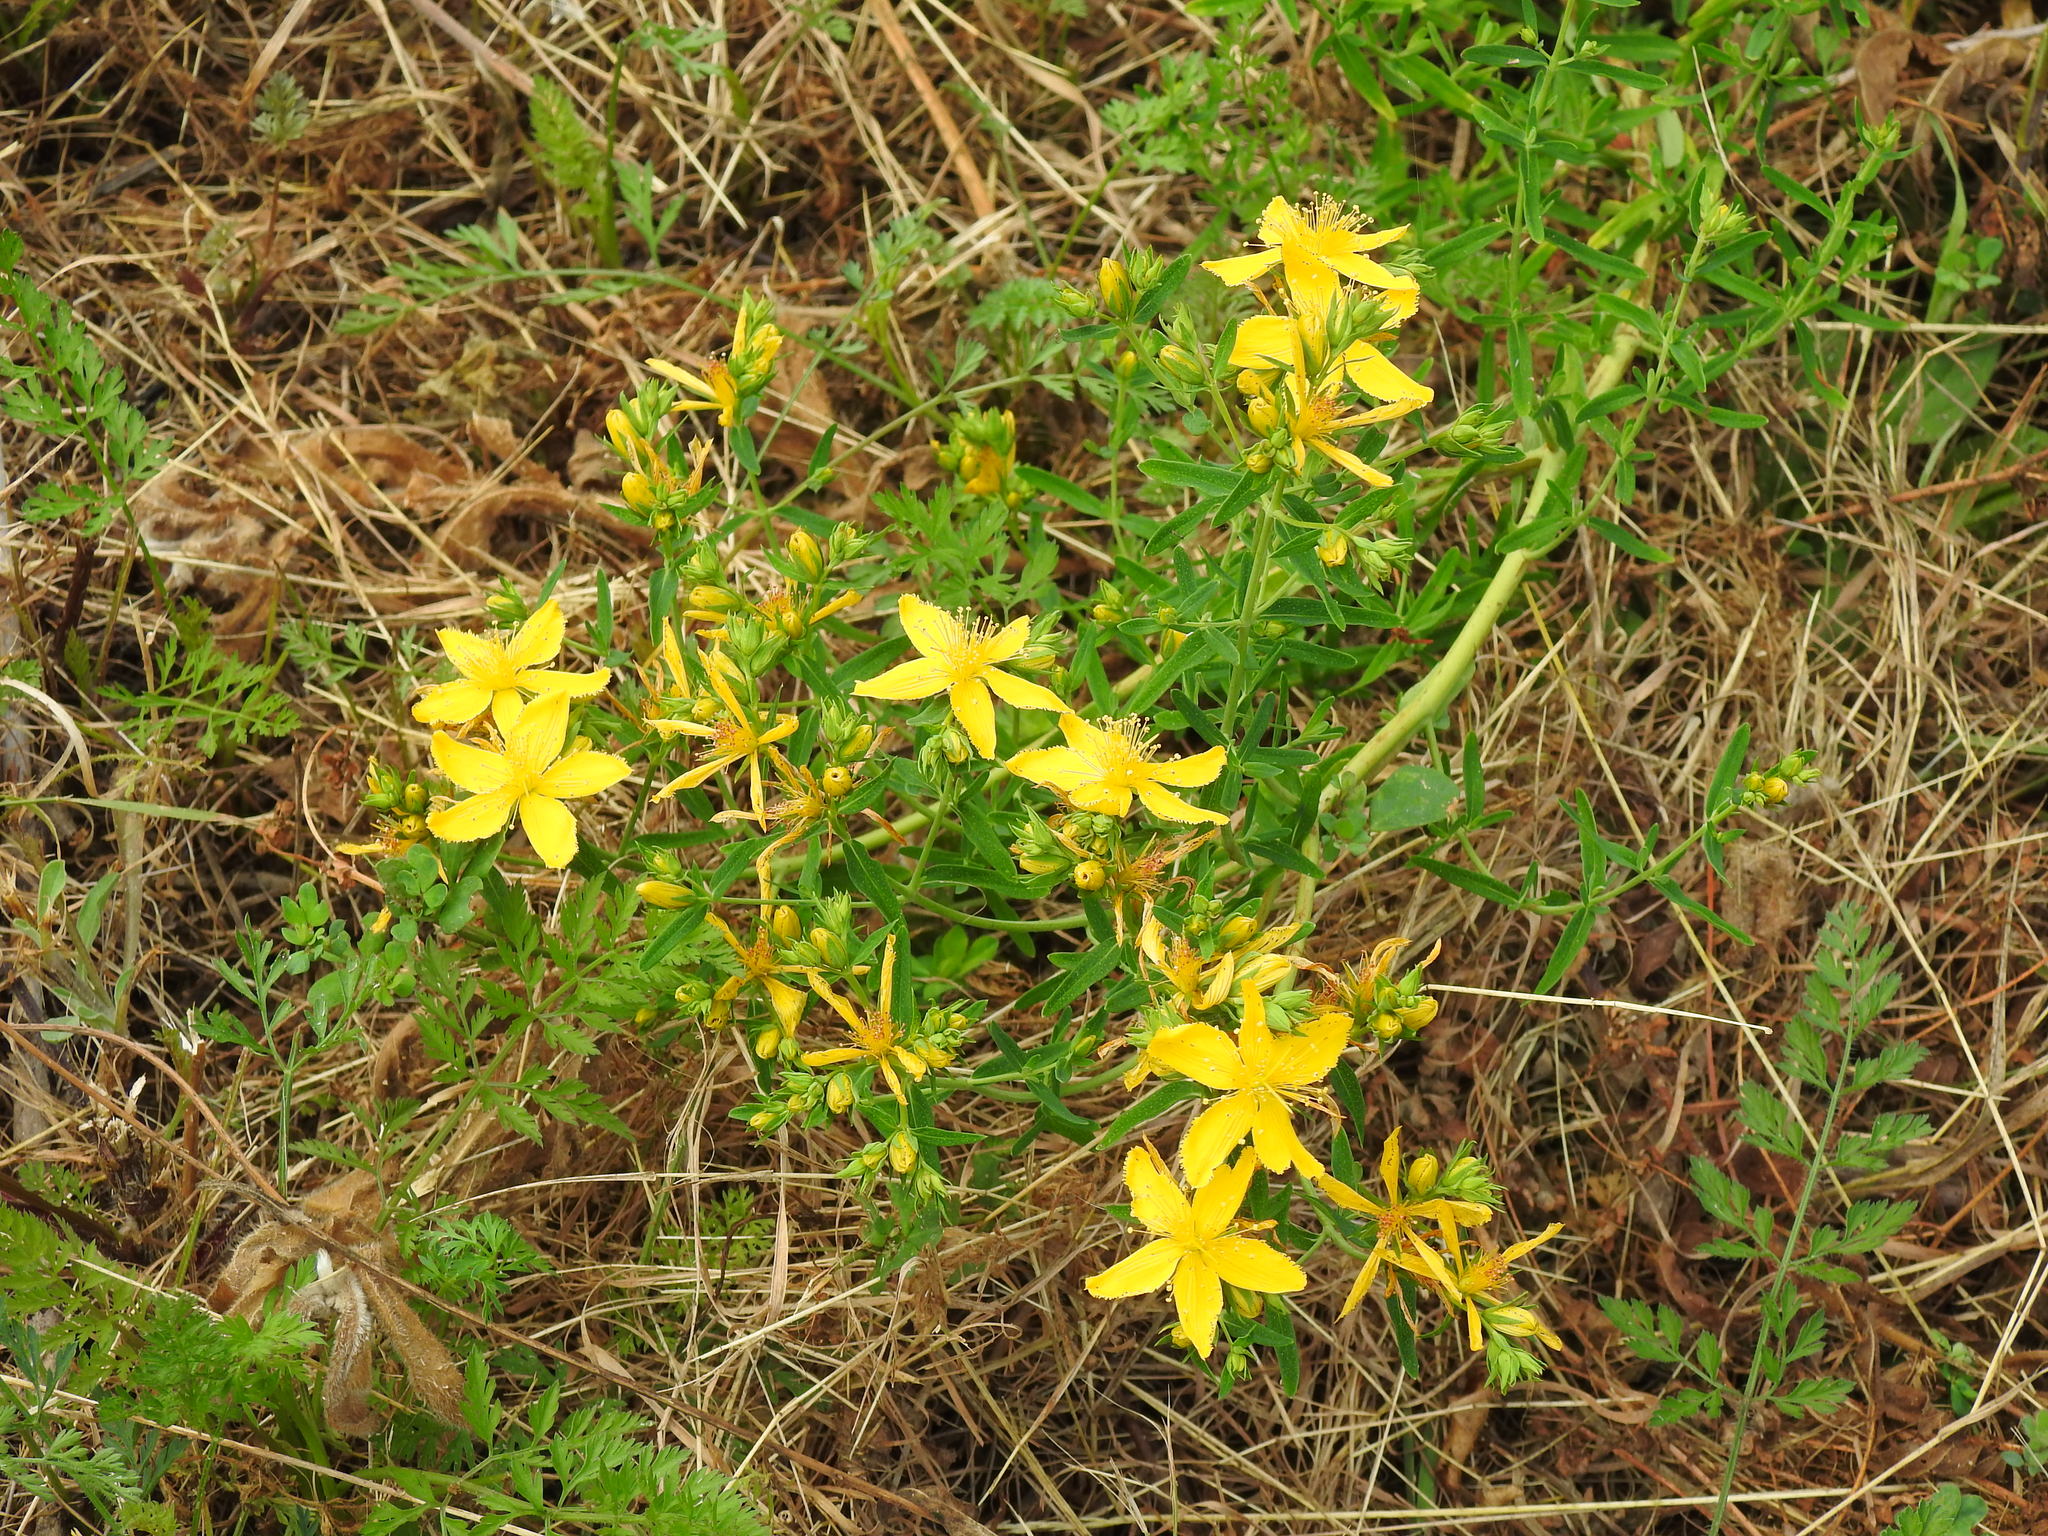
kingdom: Plantae
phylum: Tracheophyta
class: Magnoliopsida
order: Malpighiales
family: Hypericaceae
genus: Hypericum
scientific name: Hypericum perforatum
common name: Common st. johnswort
